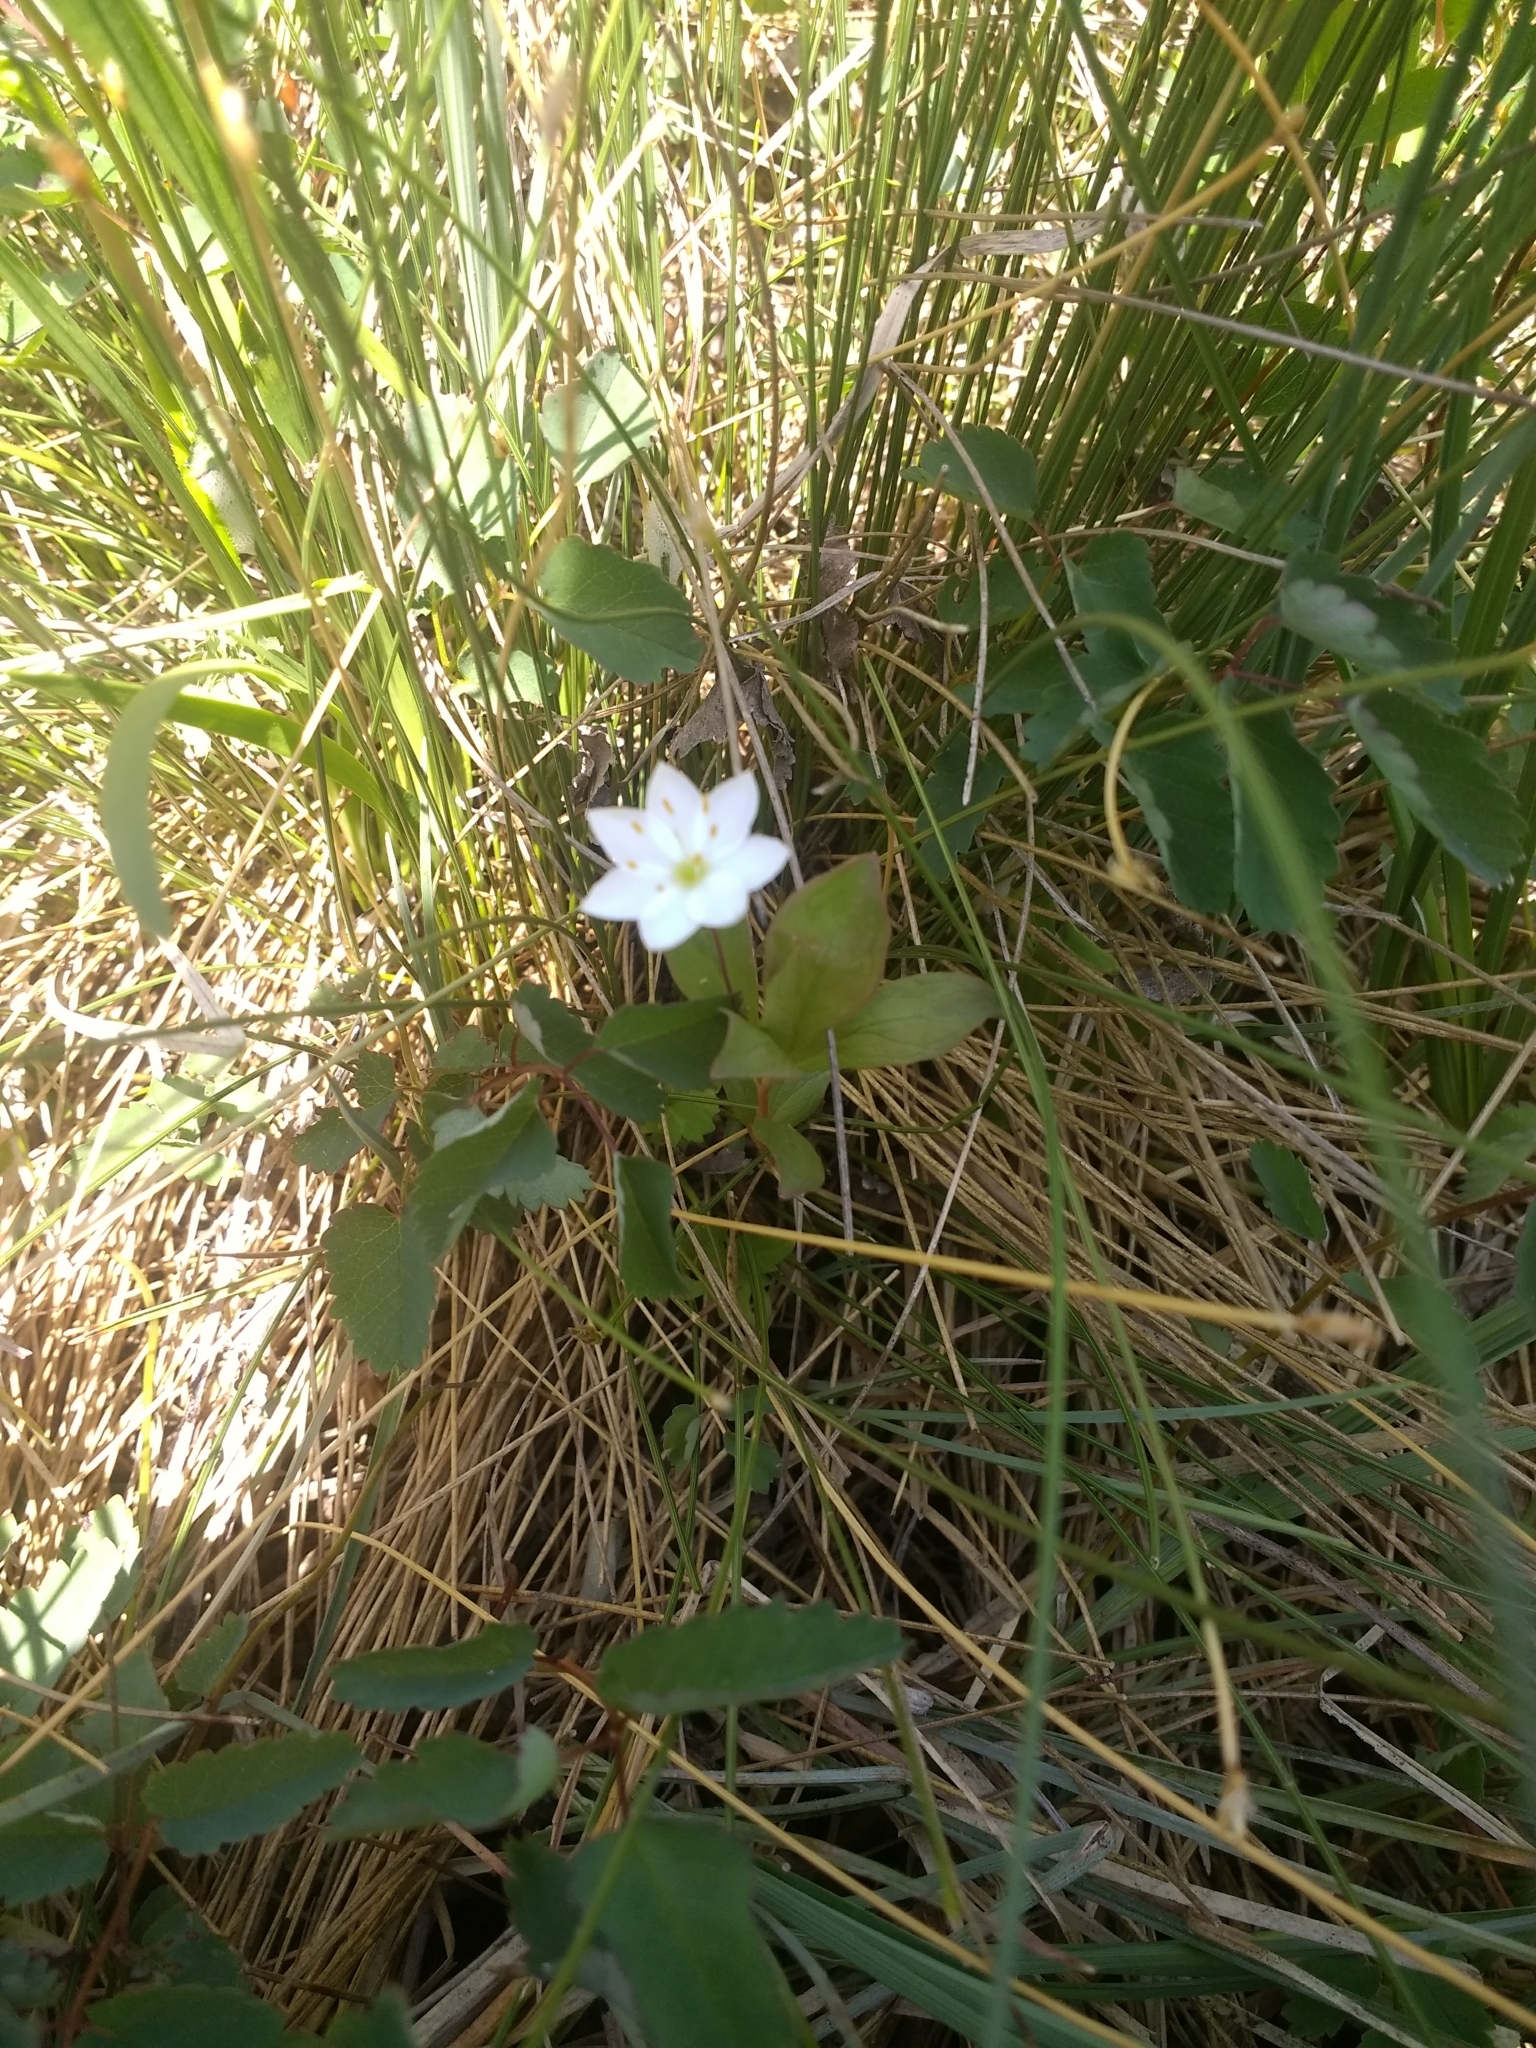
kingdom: Plantae
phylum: Tracheophyta
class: Magnoliopsida
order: Ericales
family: Primulaceae
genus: Lysimachia
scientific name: Lysimachia europaea
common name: Arctic starflower
